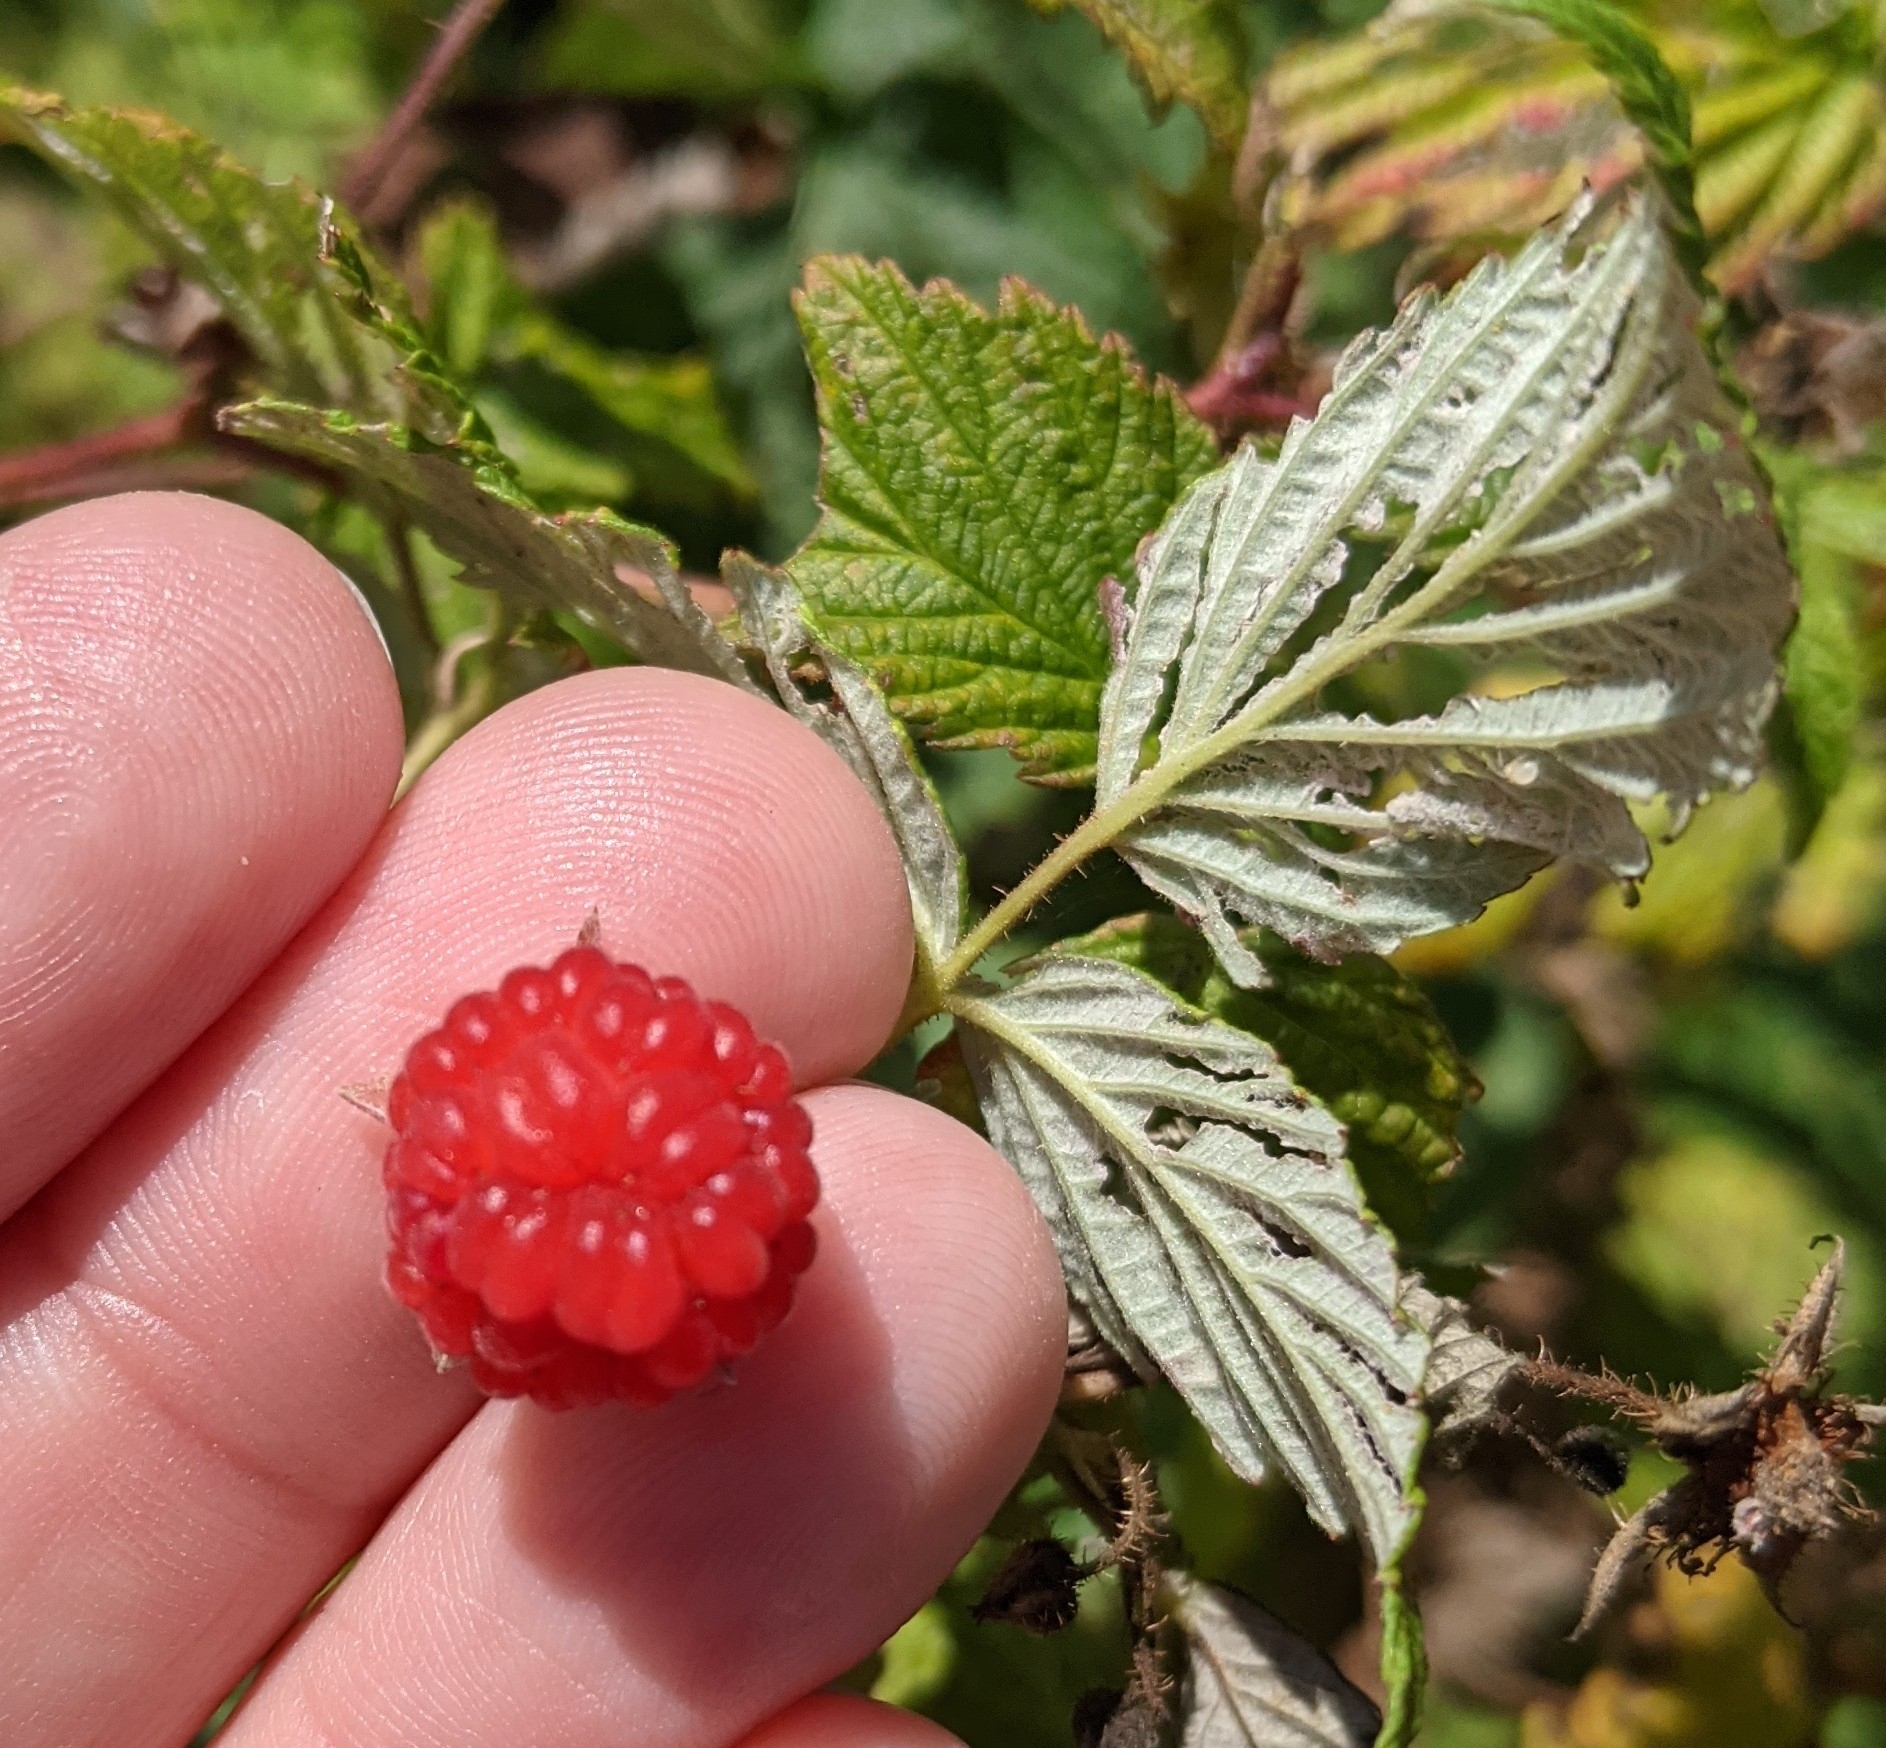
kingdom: Plantae
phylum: Tracheophyta
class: Magnoliopsida
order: Rosales
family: Rosaceae
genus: Rubus
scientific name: Rubus idaeus
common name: Raspberry
